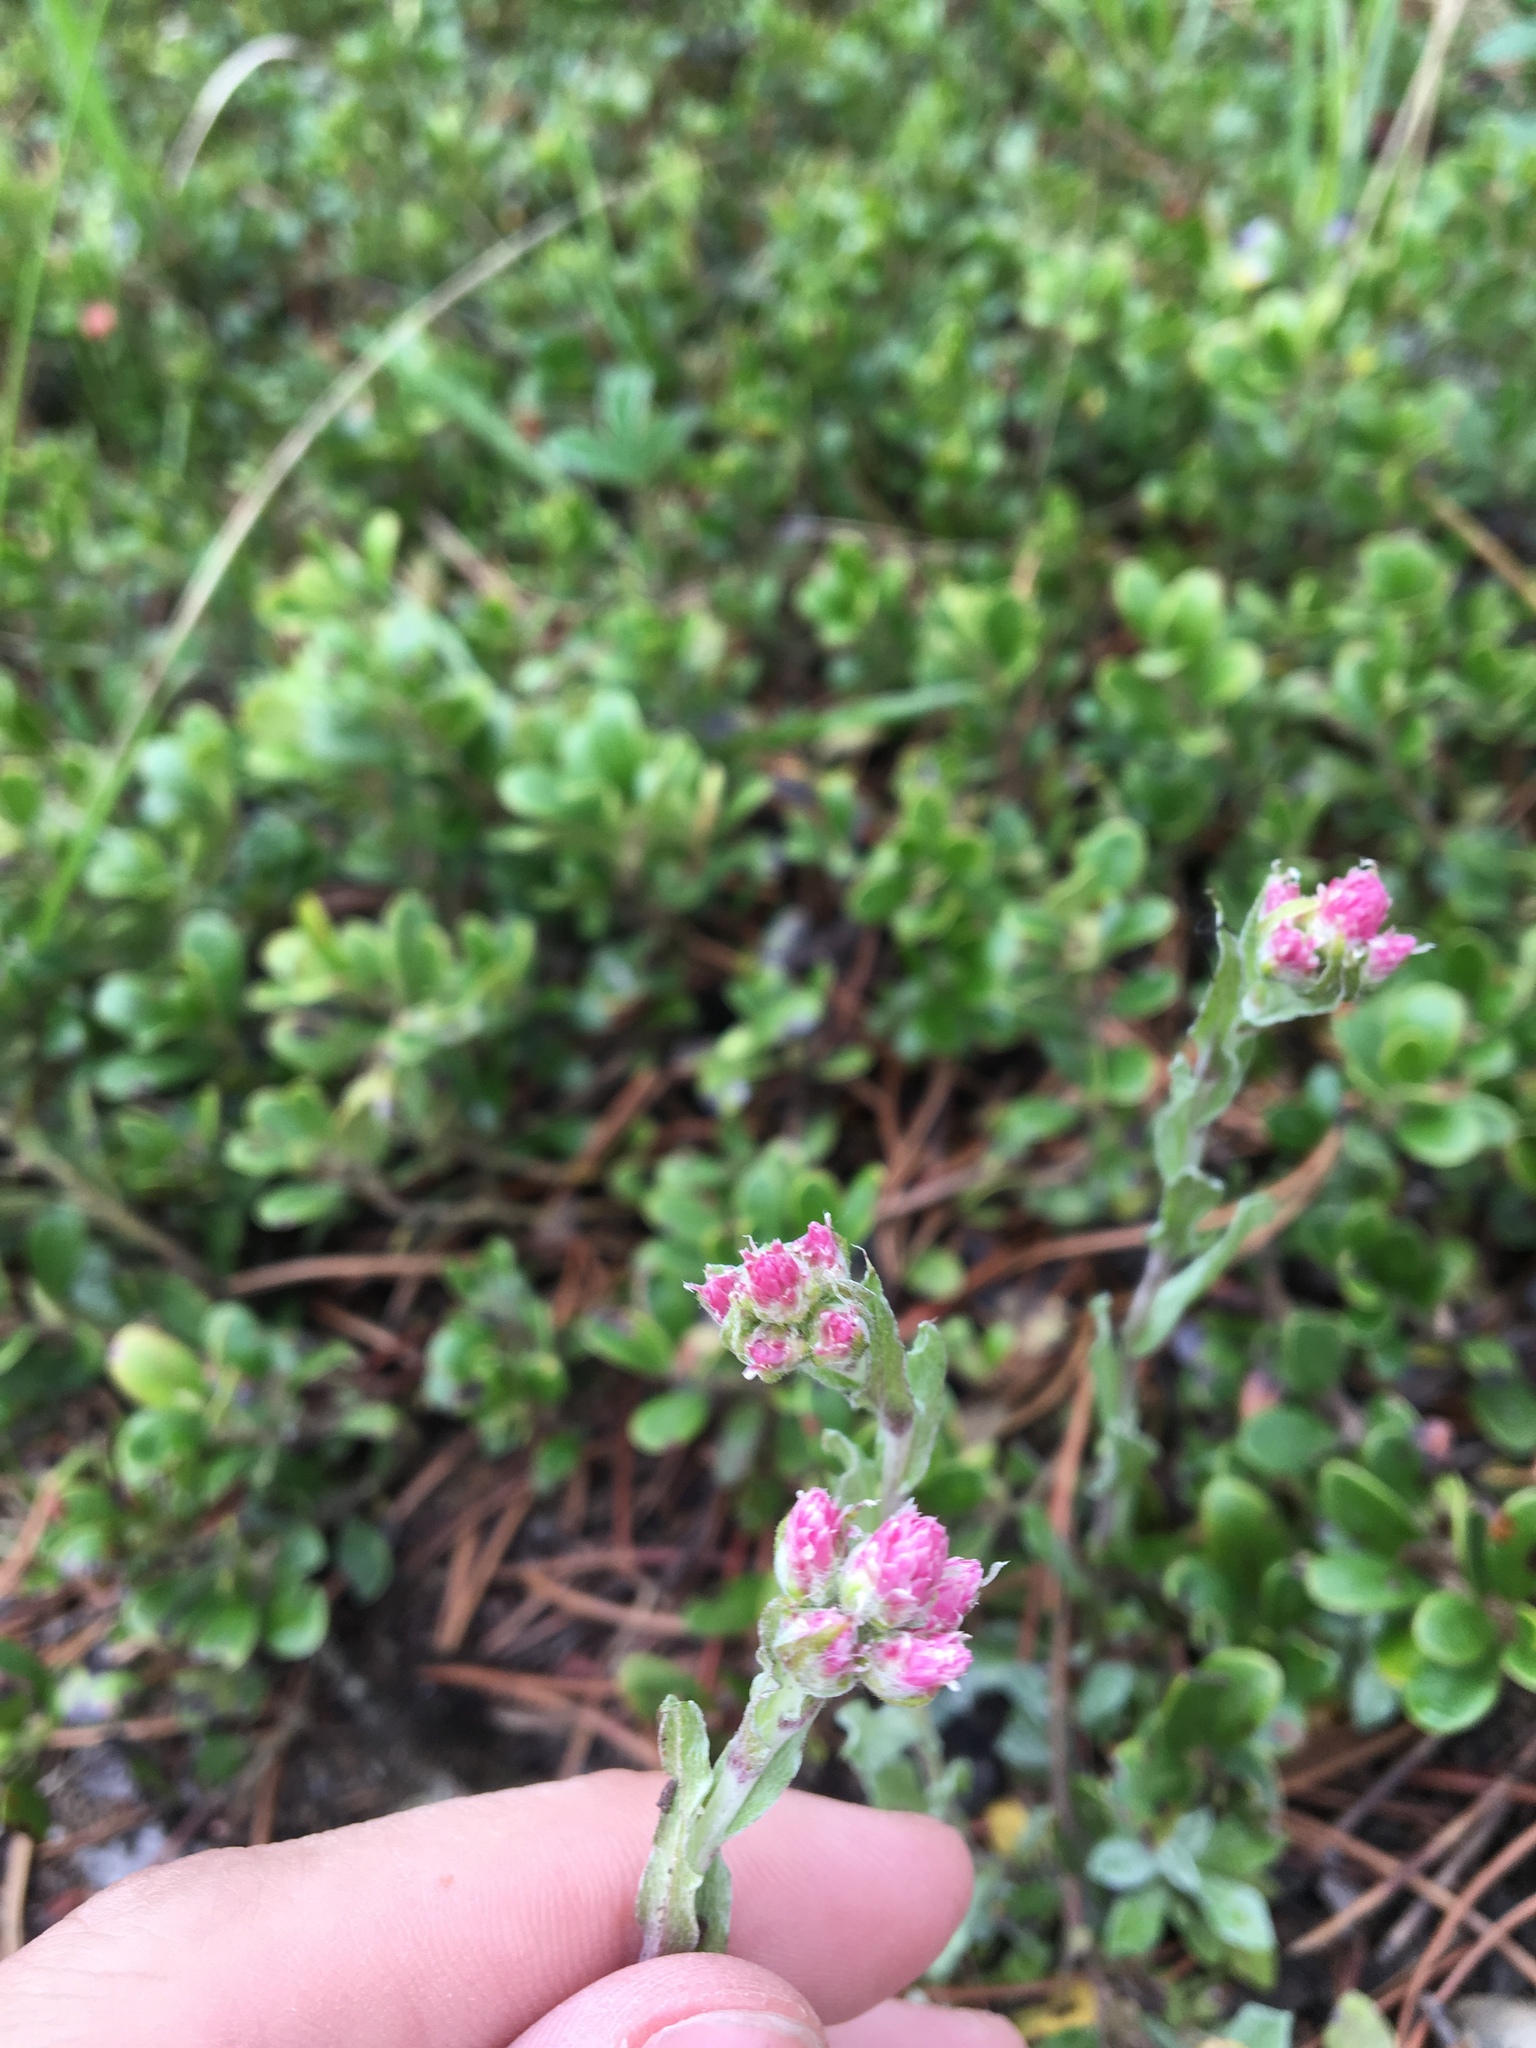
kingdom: Plantae
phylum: Tracheophyta
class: Magnoliopsida
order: Asterales
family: Asteraceae
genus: Antennaria
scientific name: Antennaria rosea
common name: Rosy pussytoes
